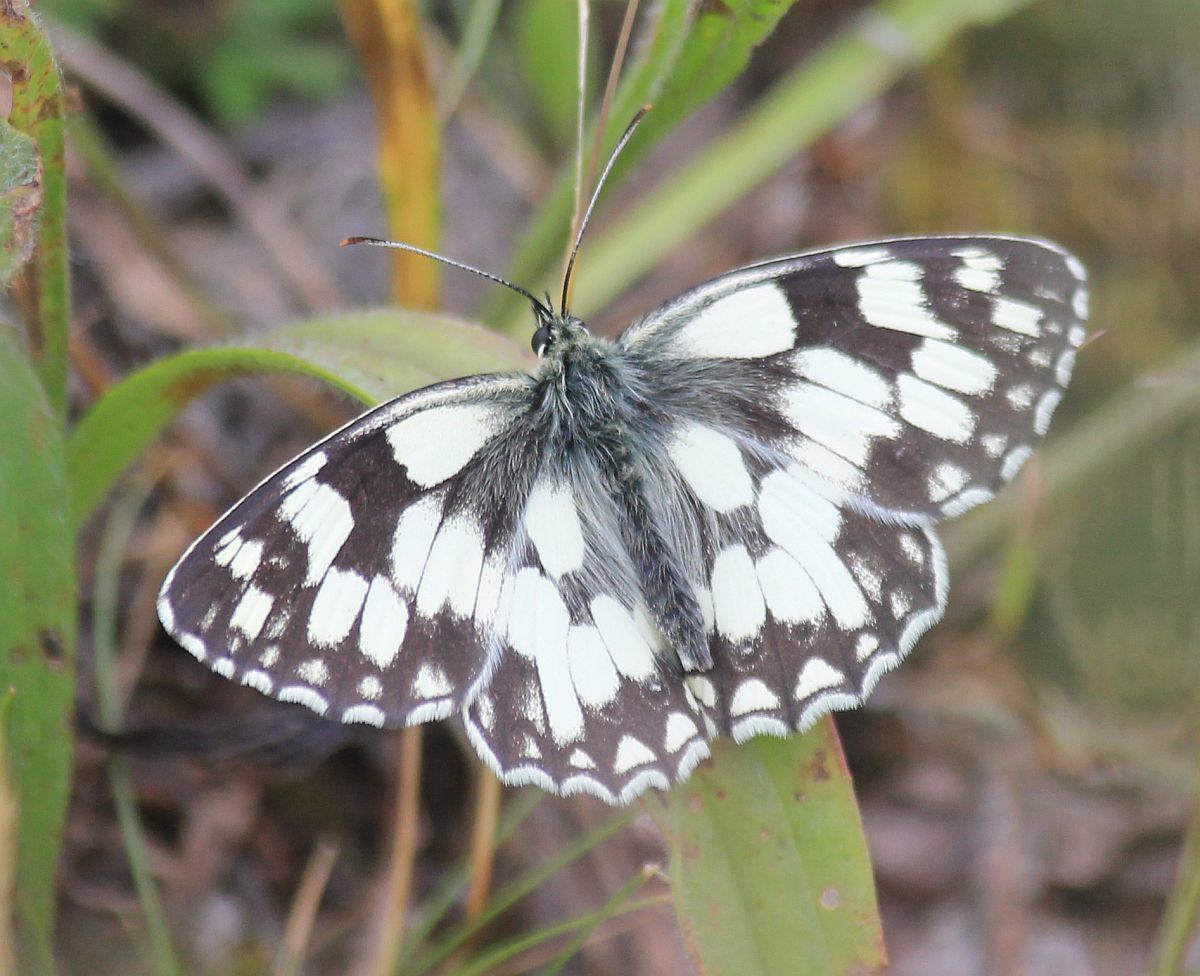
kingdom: Animalia
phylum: Arthropoda
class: Insecta
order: Lepidoptera
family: Nymphalidae
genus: Melanargia
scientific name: Melanargia galathea
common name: Marbled white
